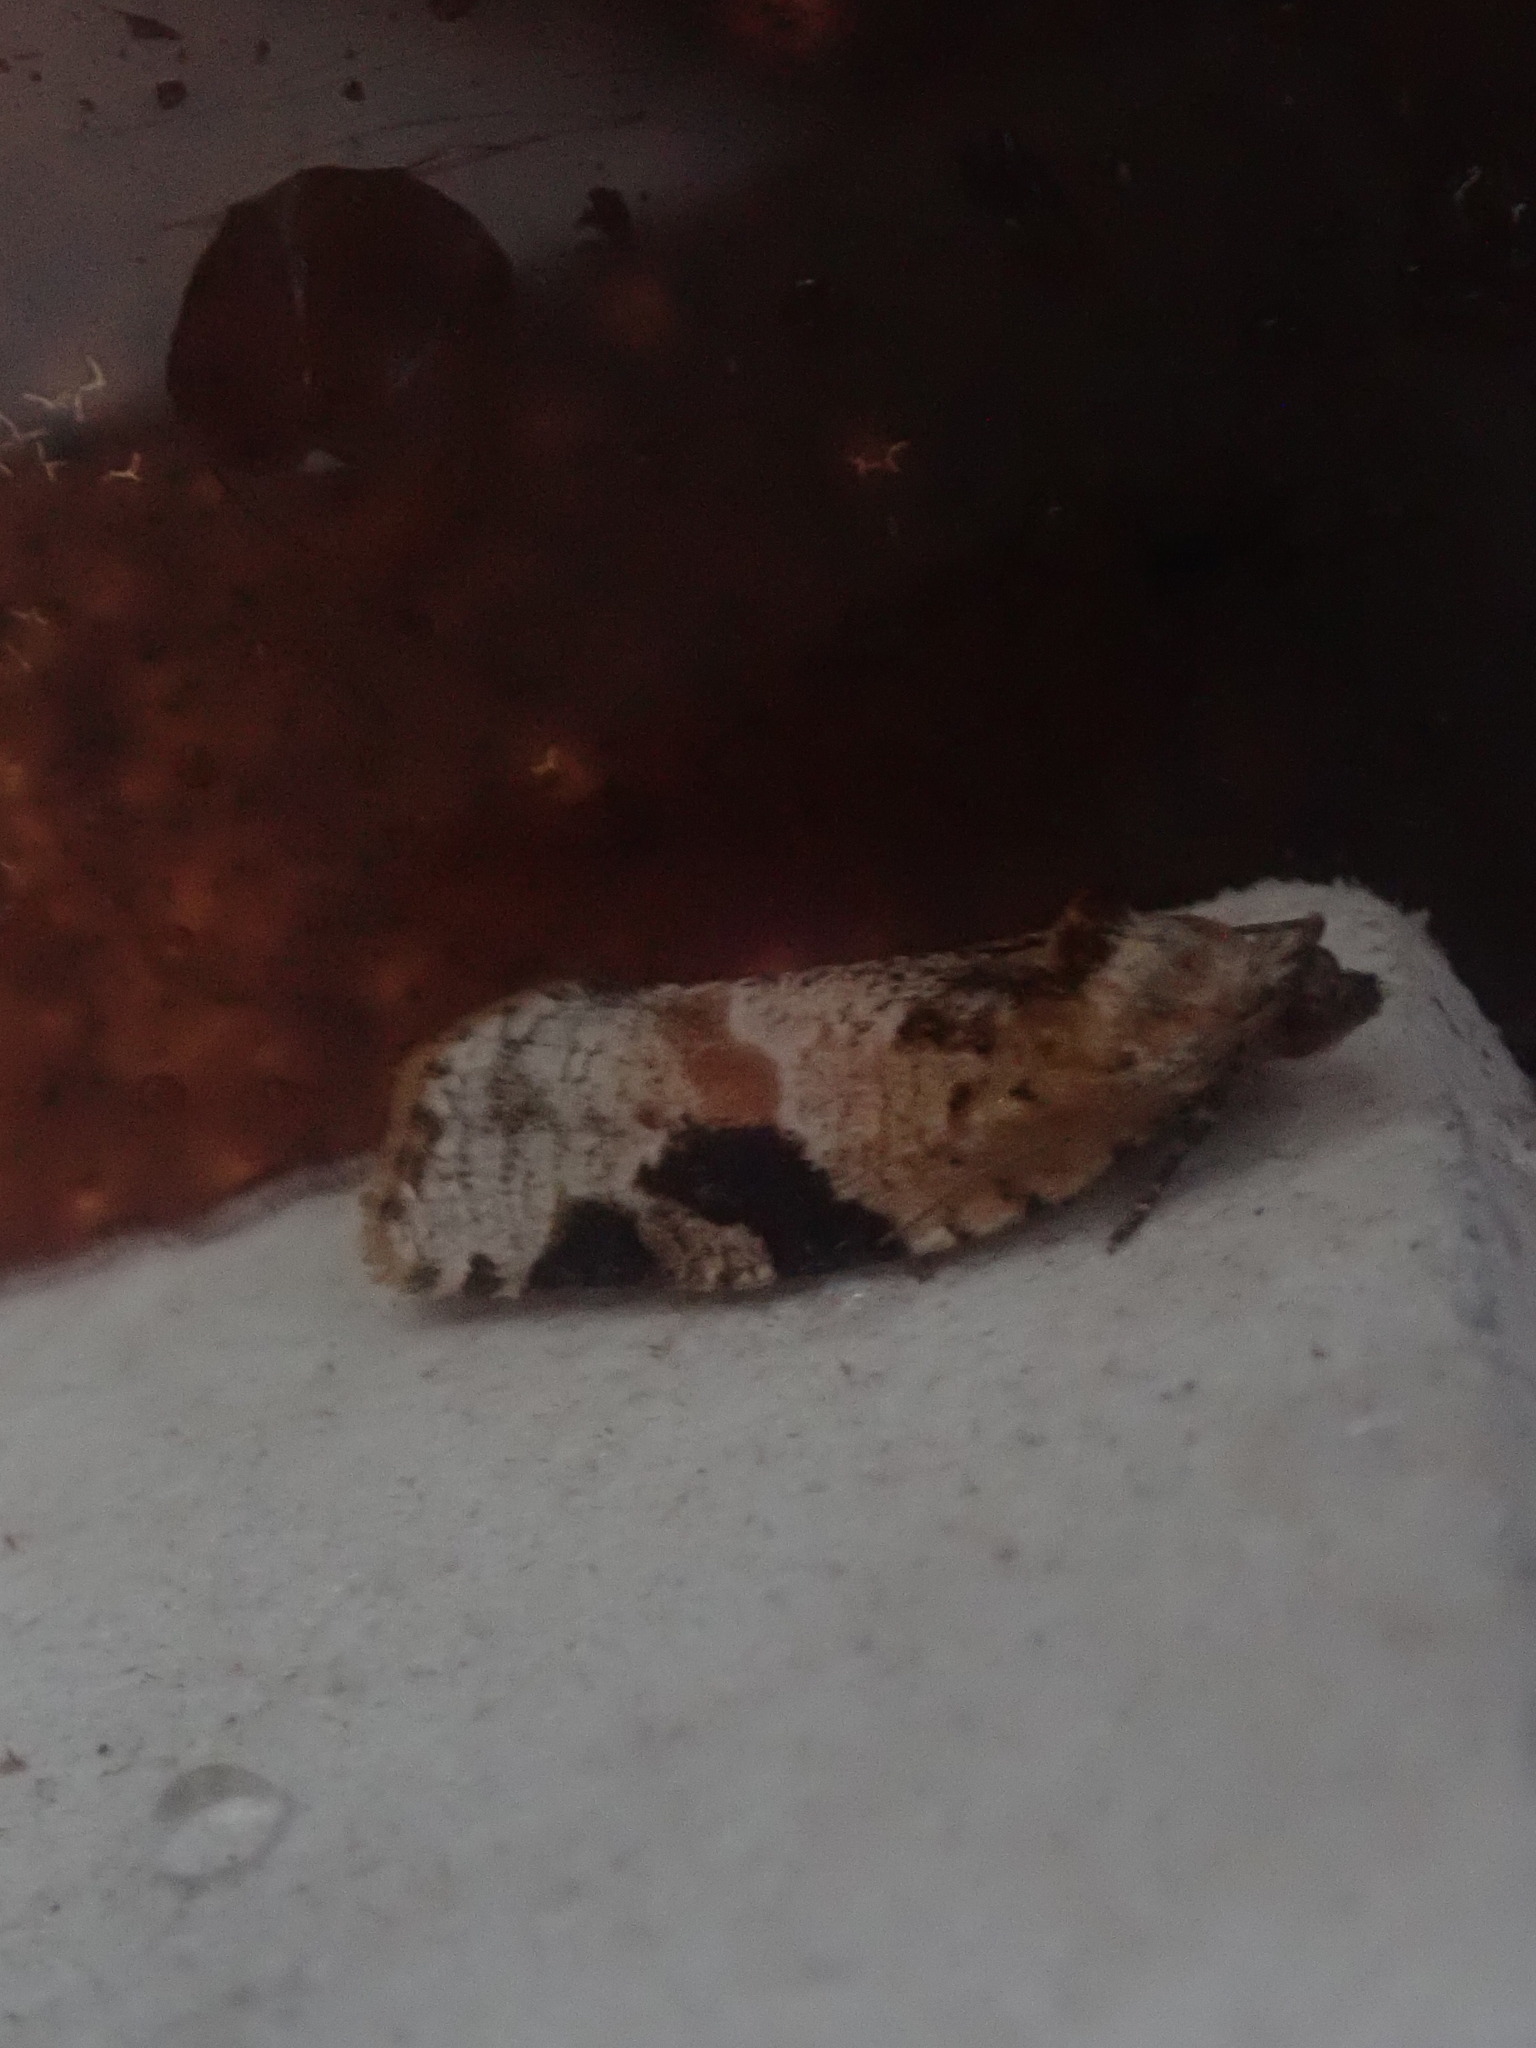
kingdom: Animalia
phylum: Arthropoda
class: Insecta
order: Lepidoptera
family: Tortricidae
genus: Argyrotaenia
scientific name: Argyrotaenia mariana
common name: Gray-banded leafroller moth
